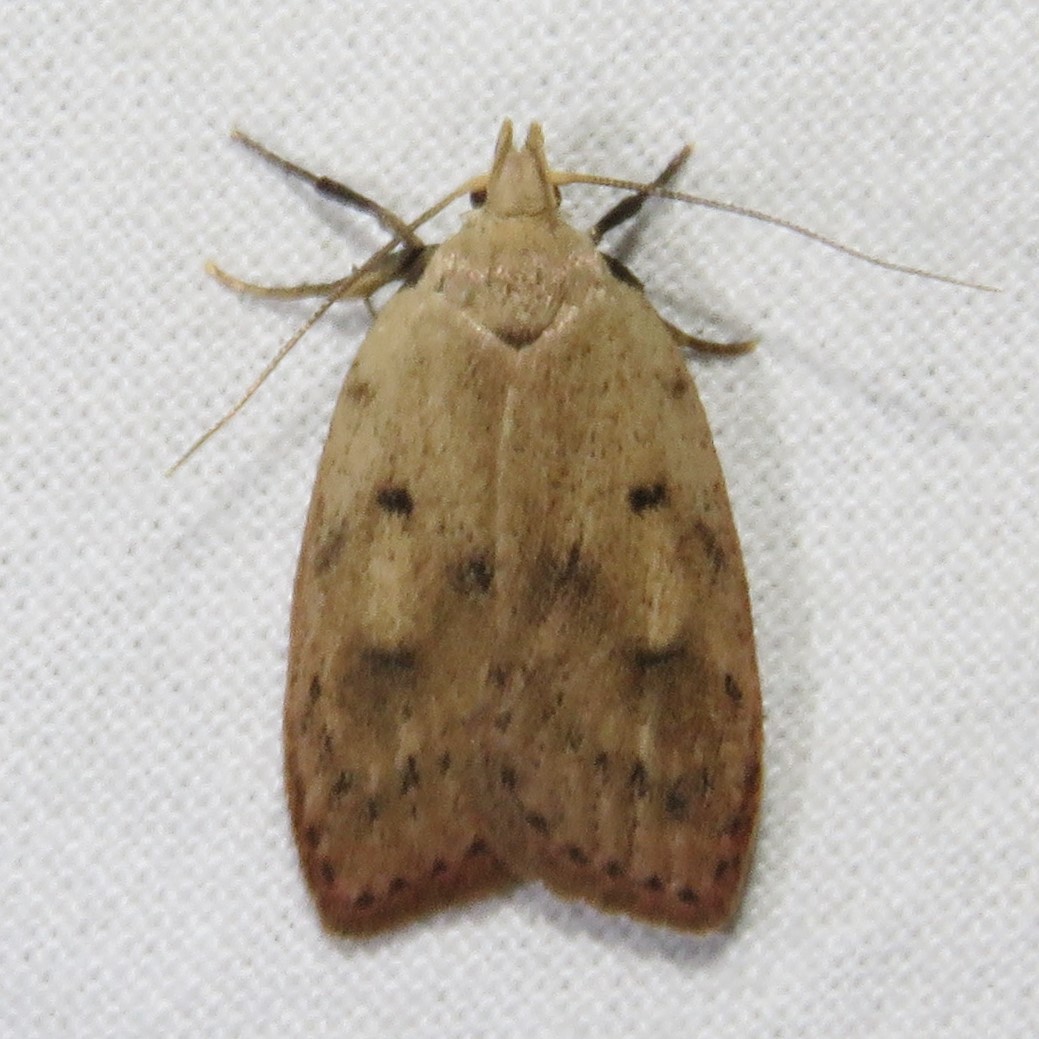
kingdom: Animalia
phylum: Arthropoda
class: Insecta
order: Lepidoptera
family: Peleopodidae
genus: Machimia
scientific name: Machimia tentoriferella
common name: Gold-striped leaftier moth
